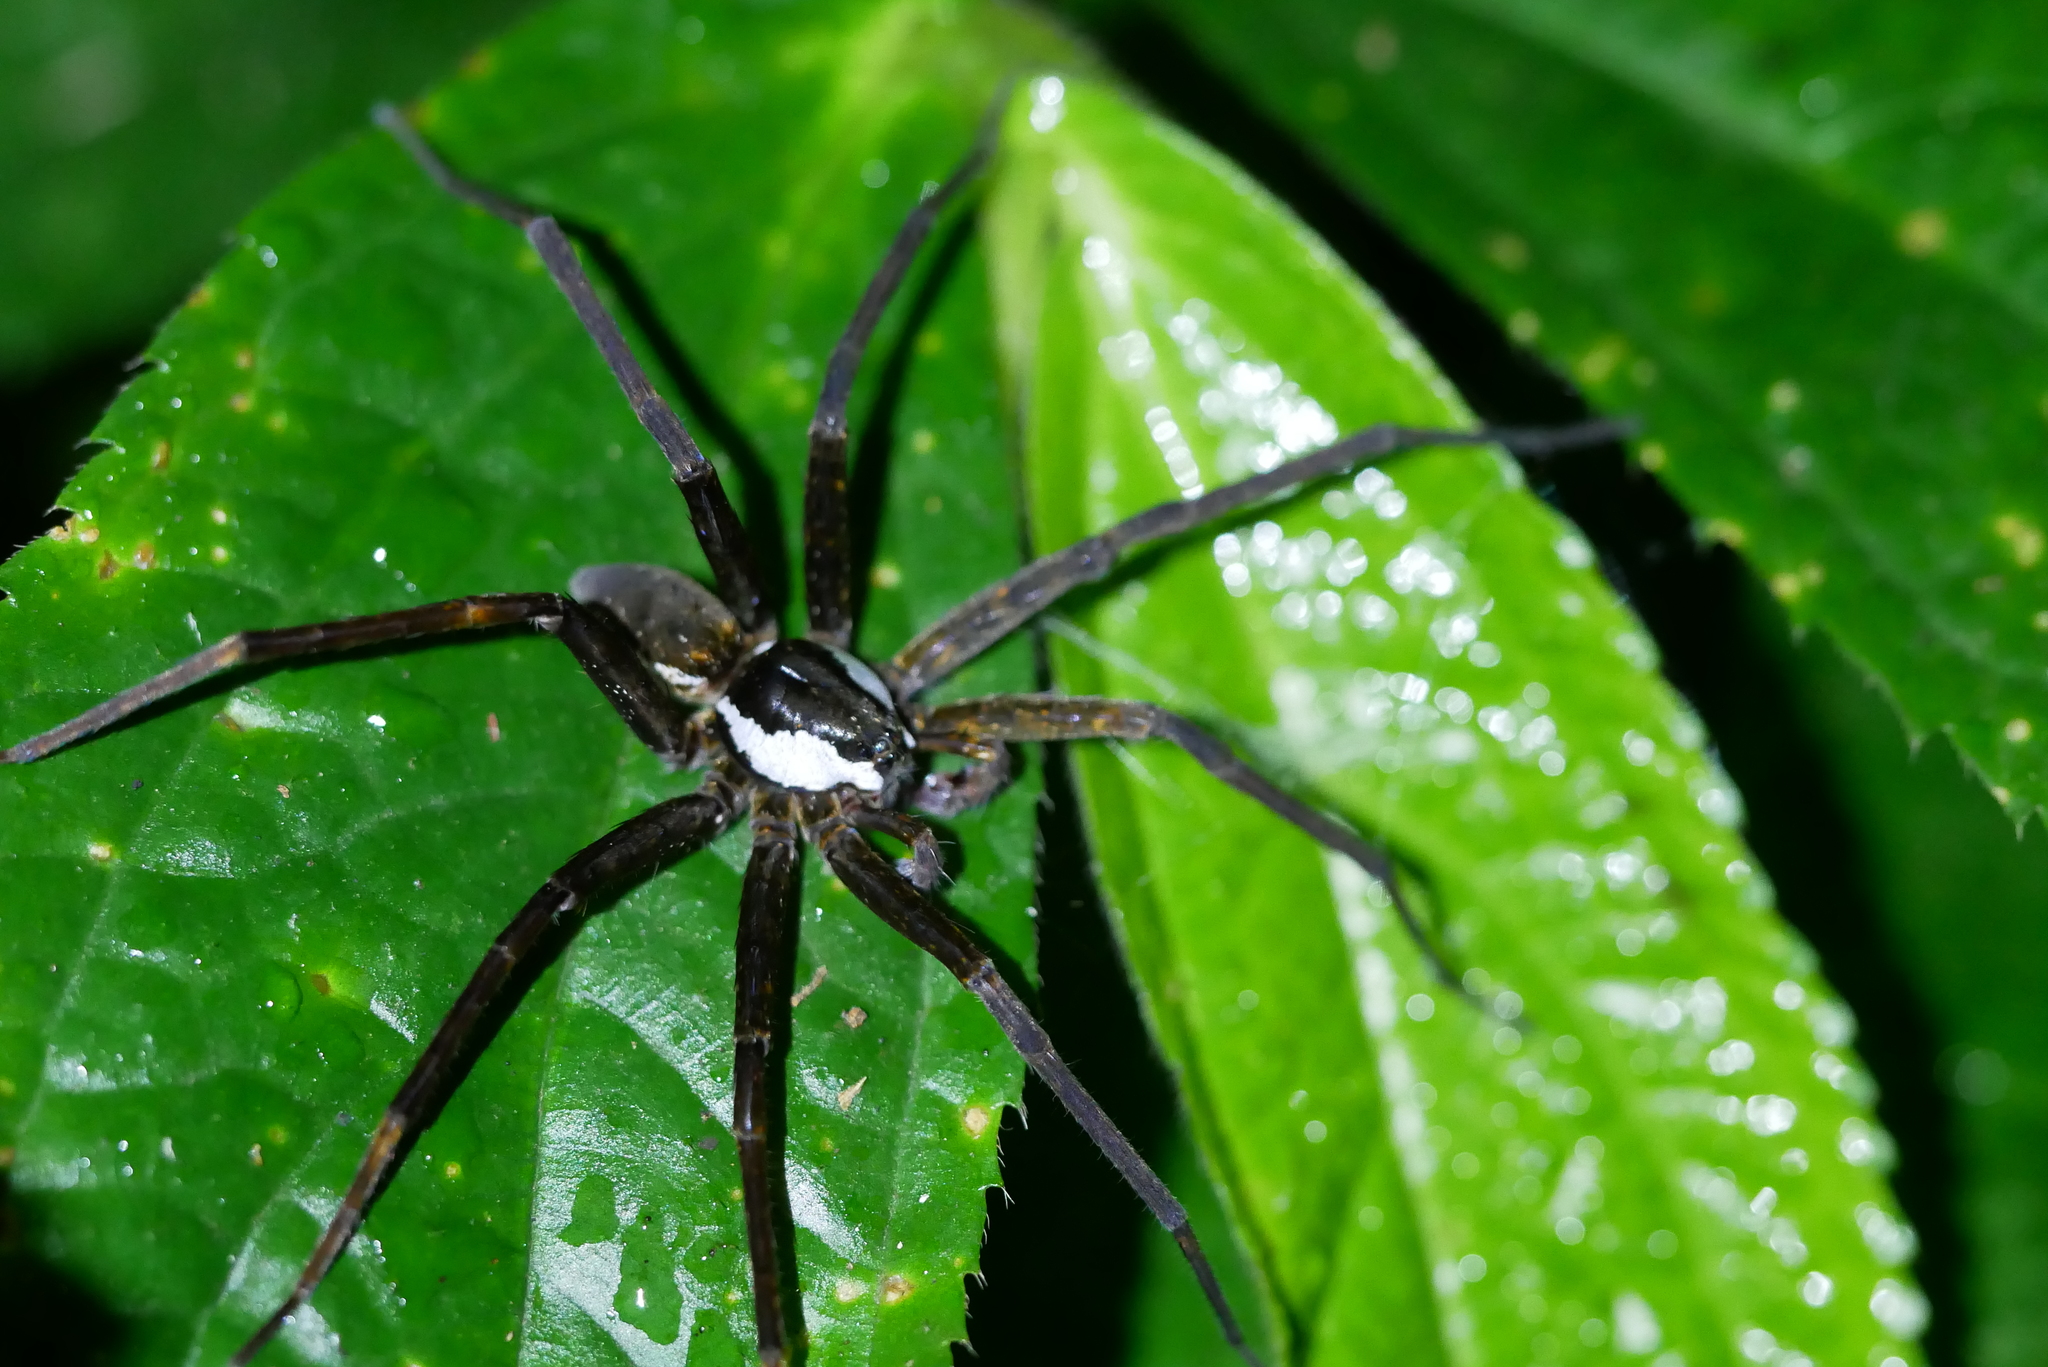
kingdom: Animalia
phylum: Arthropoda
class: Arachnida
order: Araneae
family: Pisauridae
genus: Dolomedes
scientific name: Dolomedes raptor
